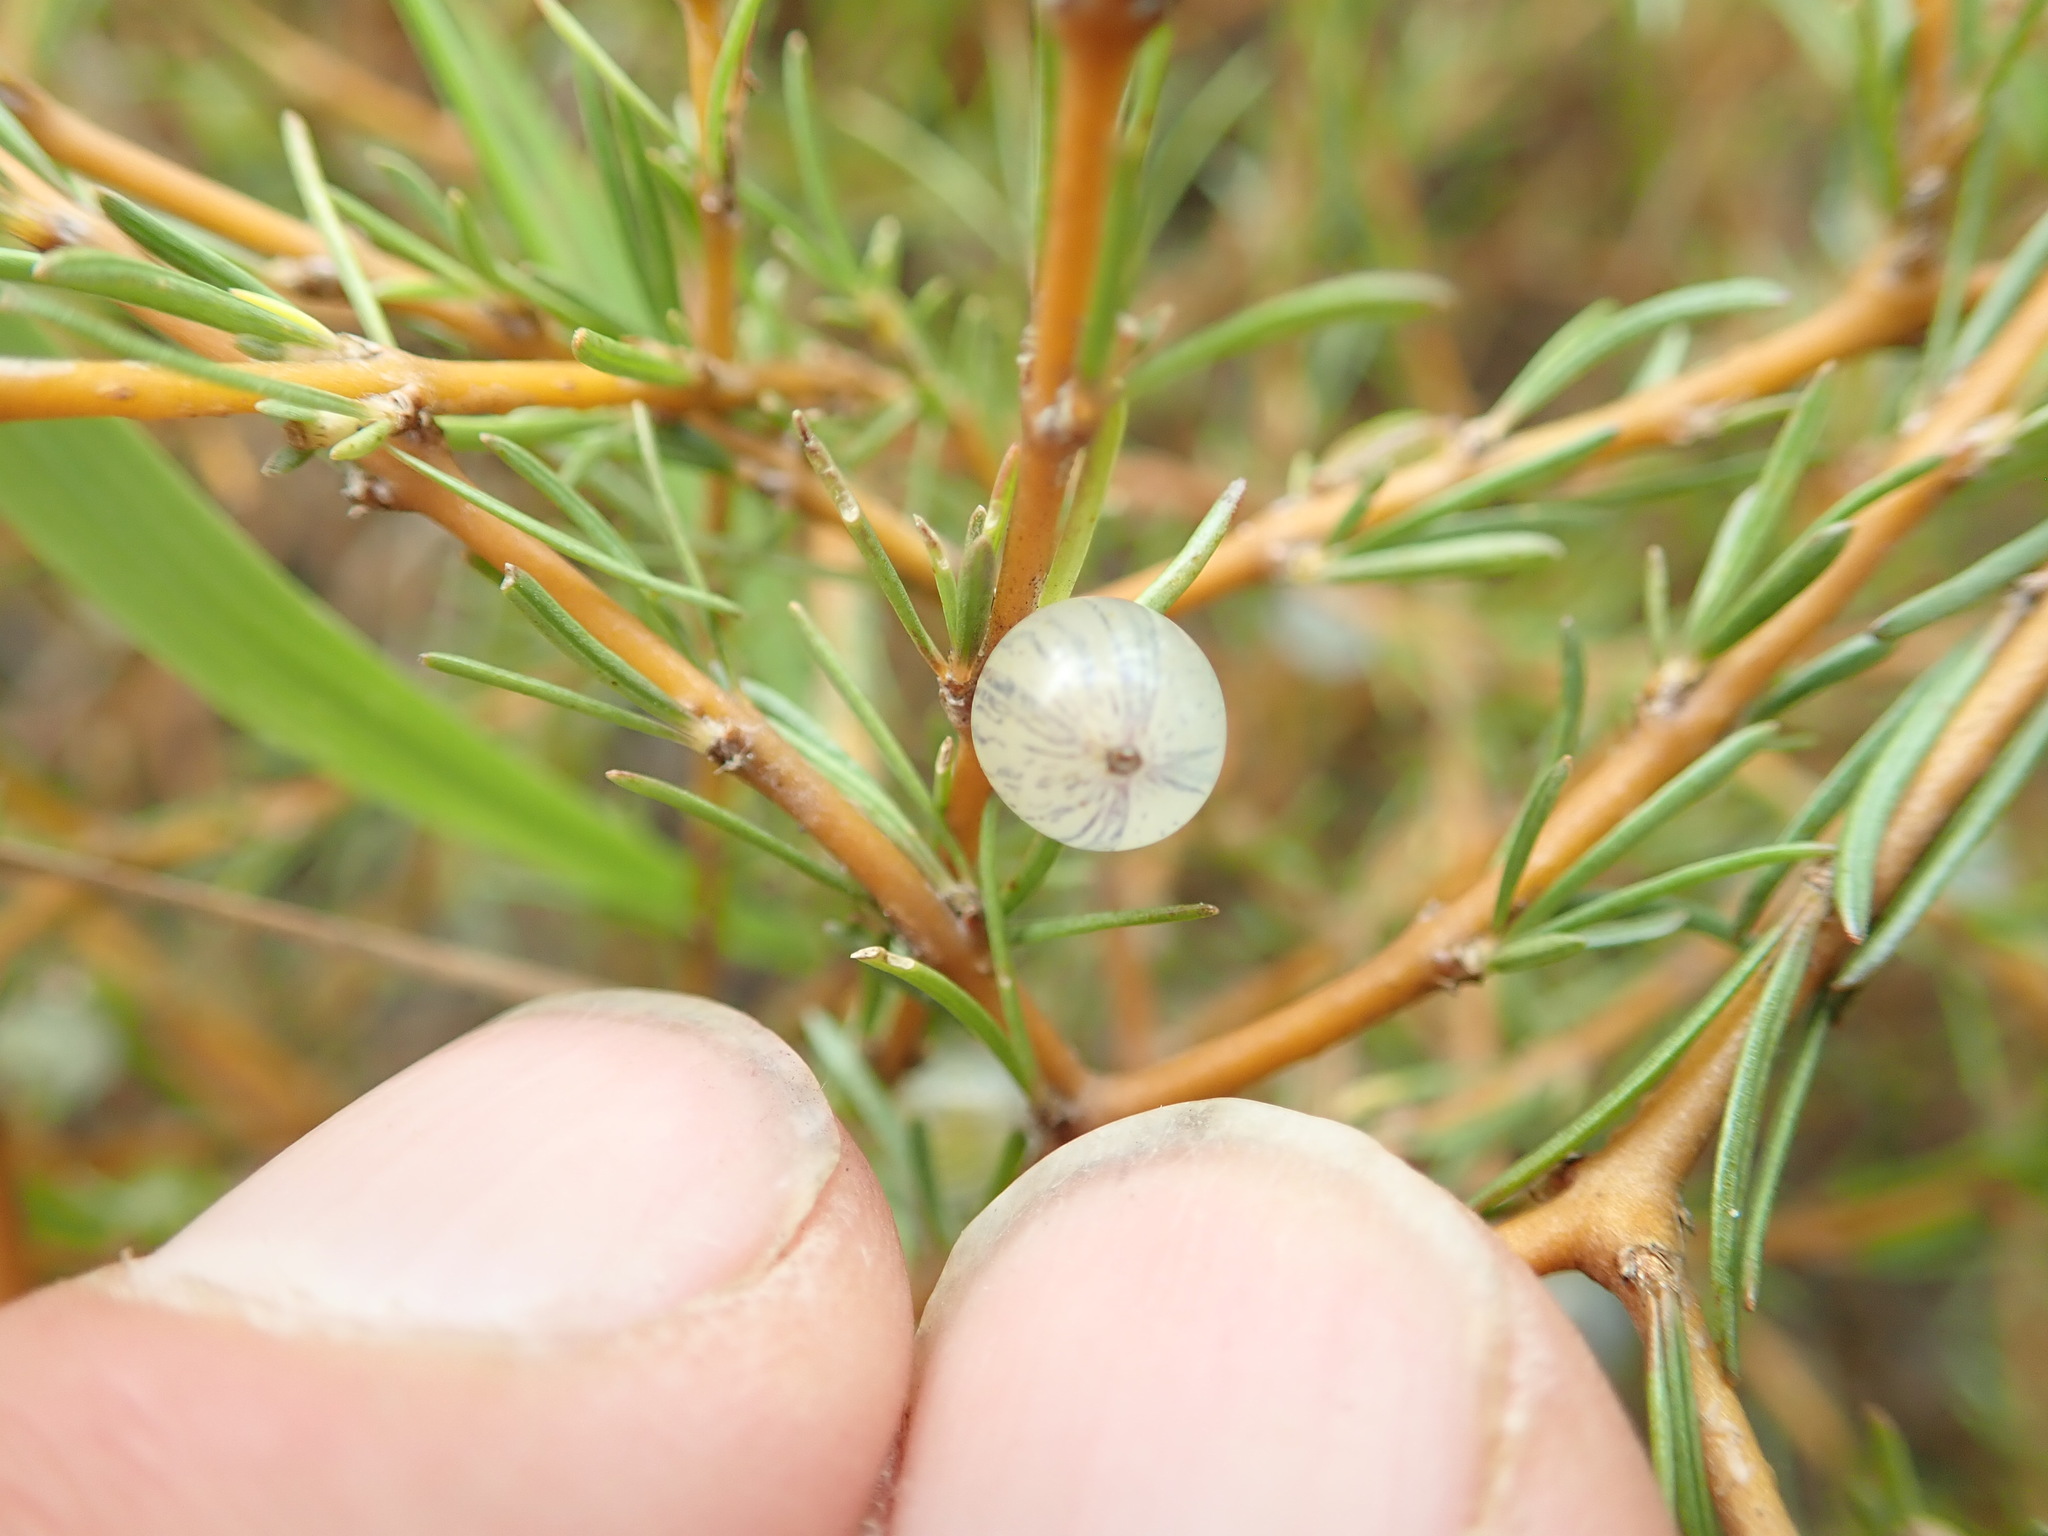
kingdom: Plantae
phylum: Tracheophyta
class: Magnoliopsida
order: Gentianales
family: Rubiaceae
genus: Coprosma
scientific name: Coprosma acerosa
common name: Sand coprosma
